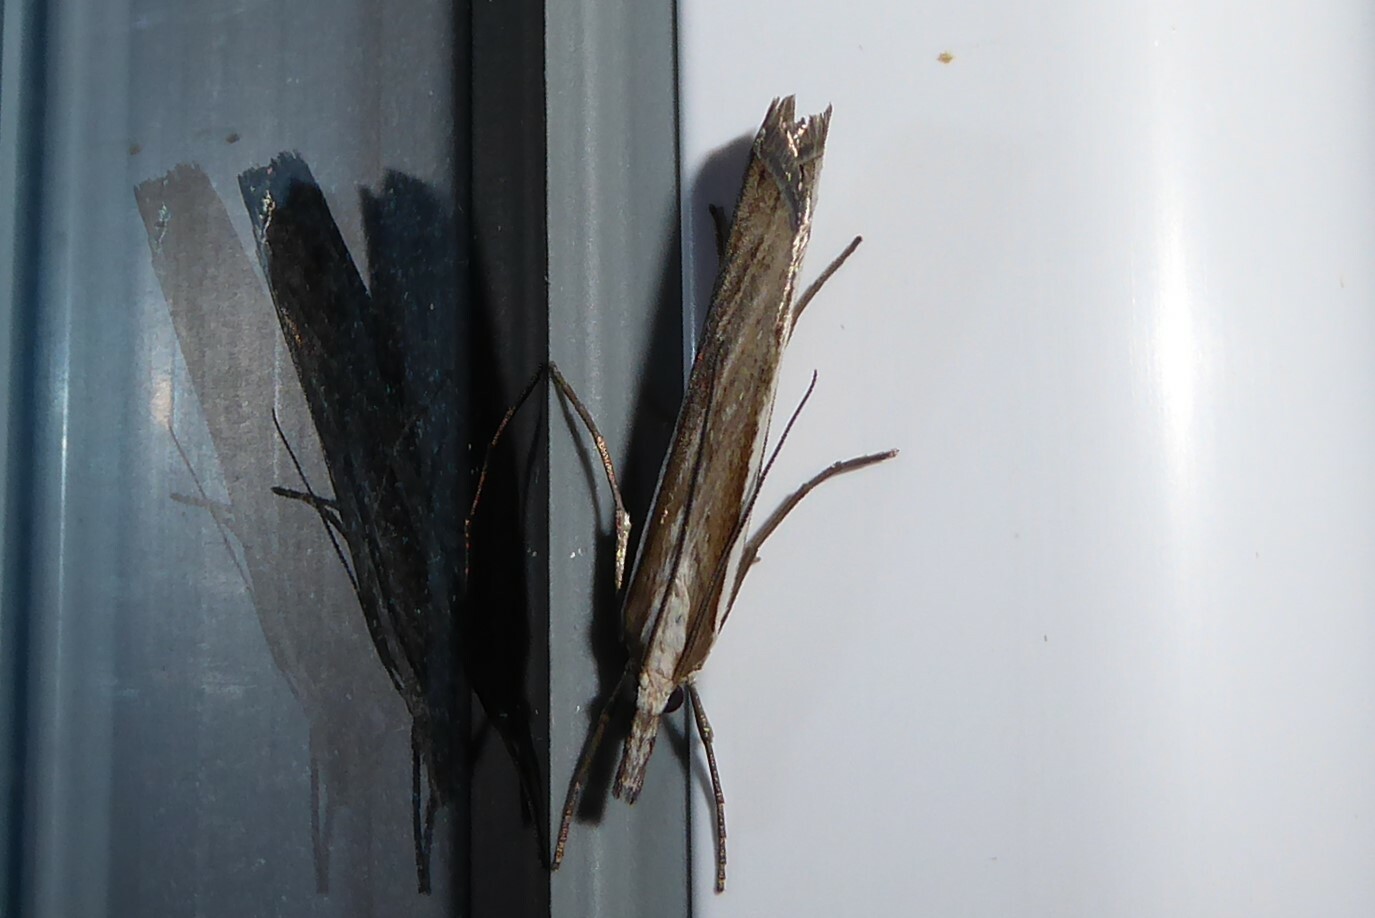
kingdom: Animalia
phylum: Arthropoda
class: Insecta
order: Lepidoptera
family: Crambidae
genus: Orocrambus
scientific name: Orocrambus vittellus
